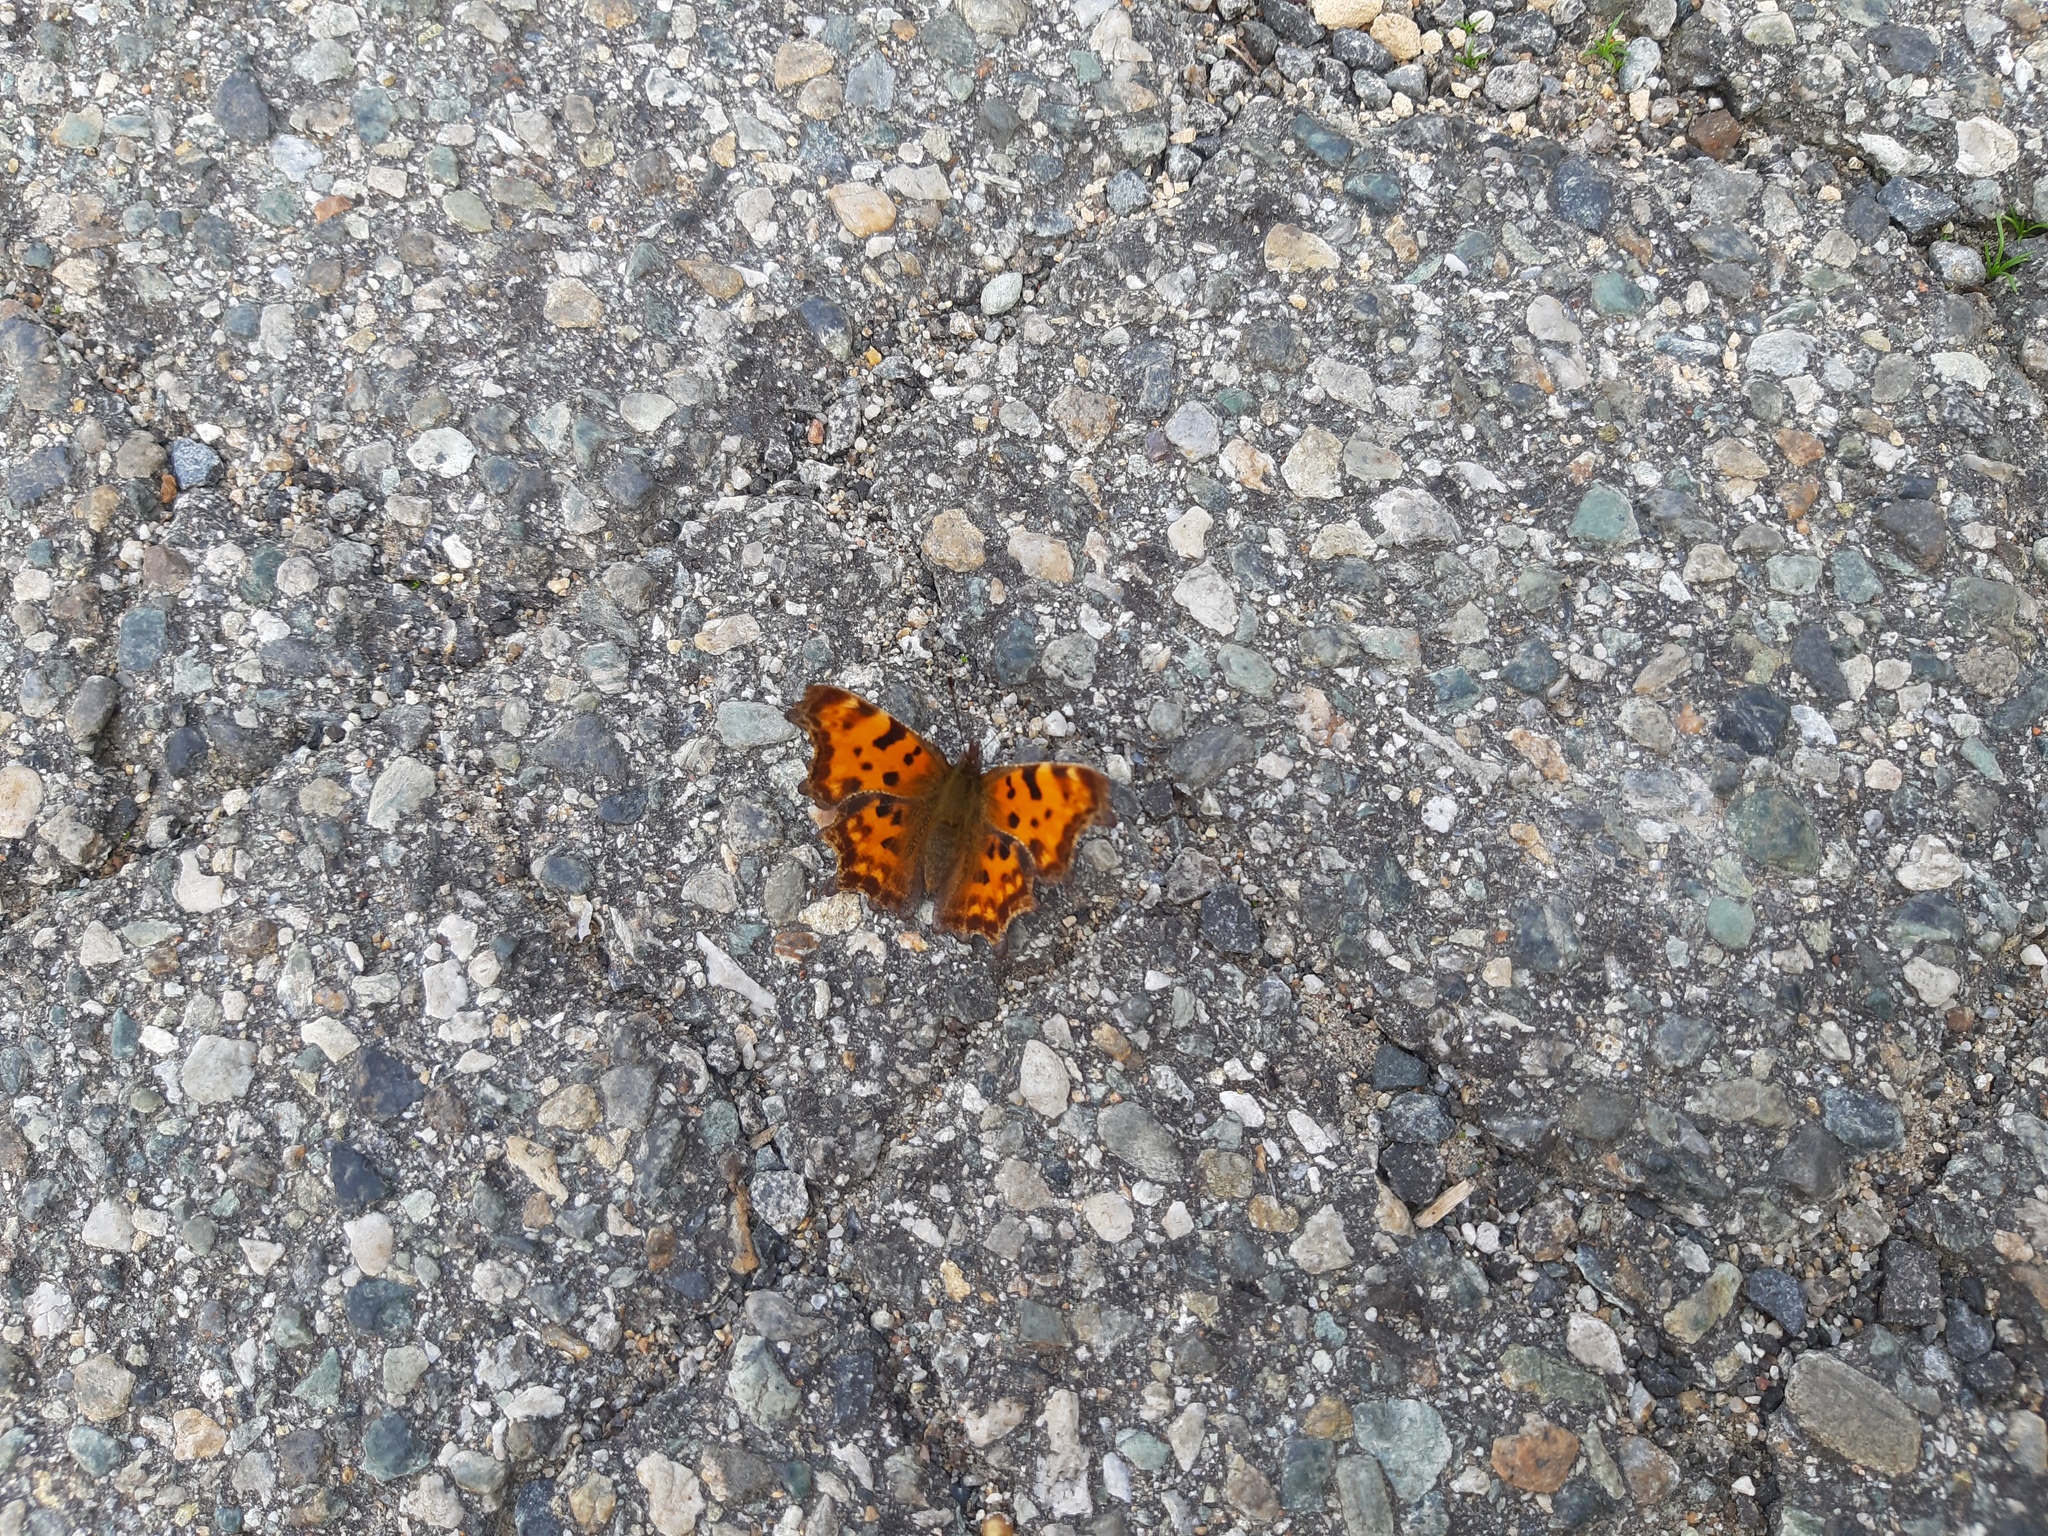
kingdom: Animalia
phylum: Arthropoda
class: Insecta
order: Lepidoptera
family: Nymphalidae
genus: Polygonia
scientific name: Polygonia c-album
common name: Comma
